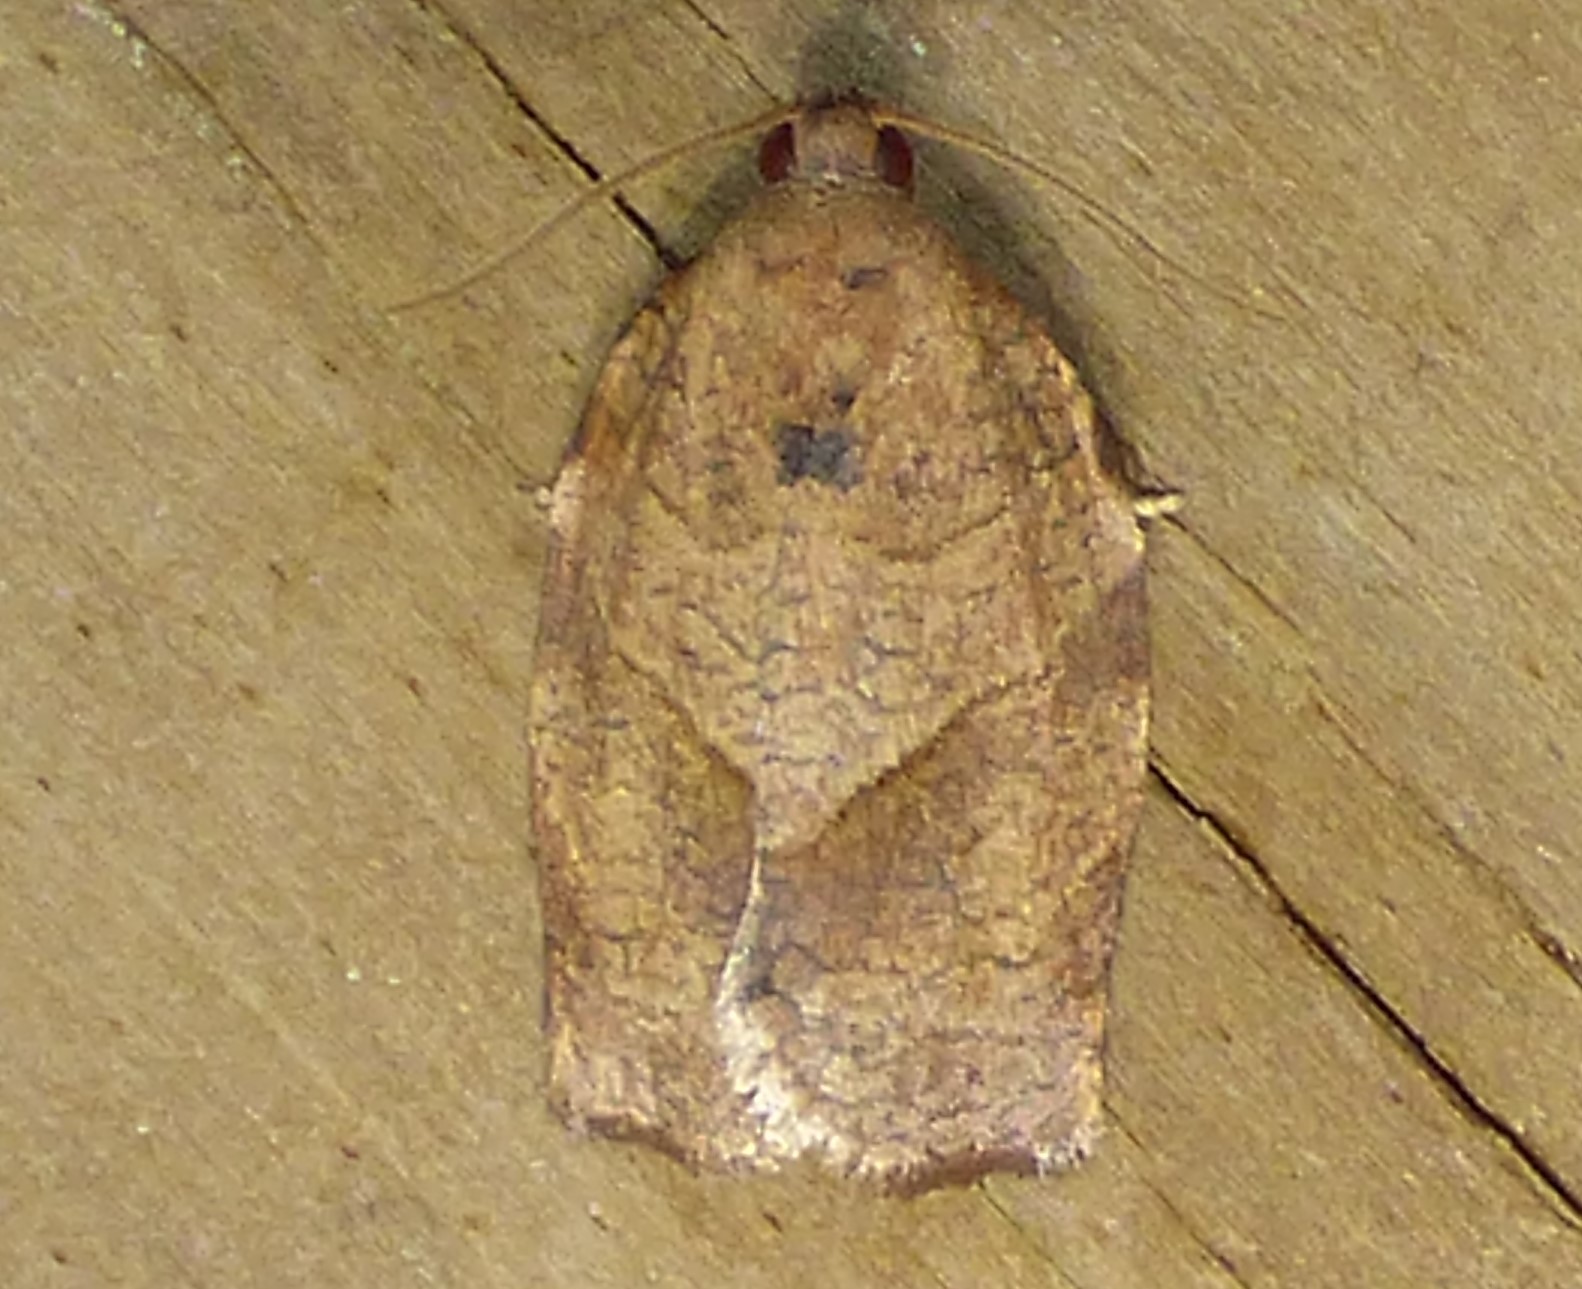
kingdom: Animalia
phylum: Arthropoda
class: Insecta
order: Lepidoptera
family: Tortricidae
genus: Choristoneura
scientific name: Choristoneura rosaceana
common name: Oblique-banded leafroller moth
